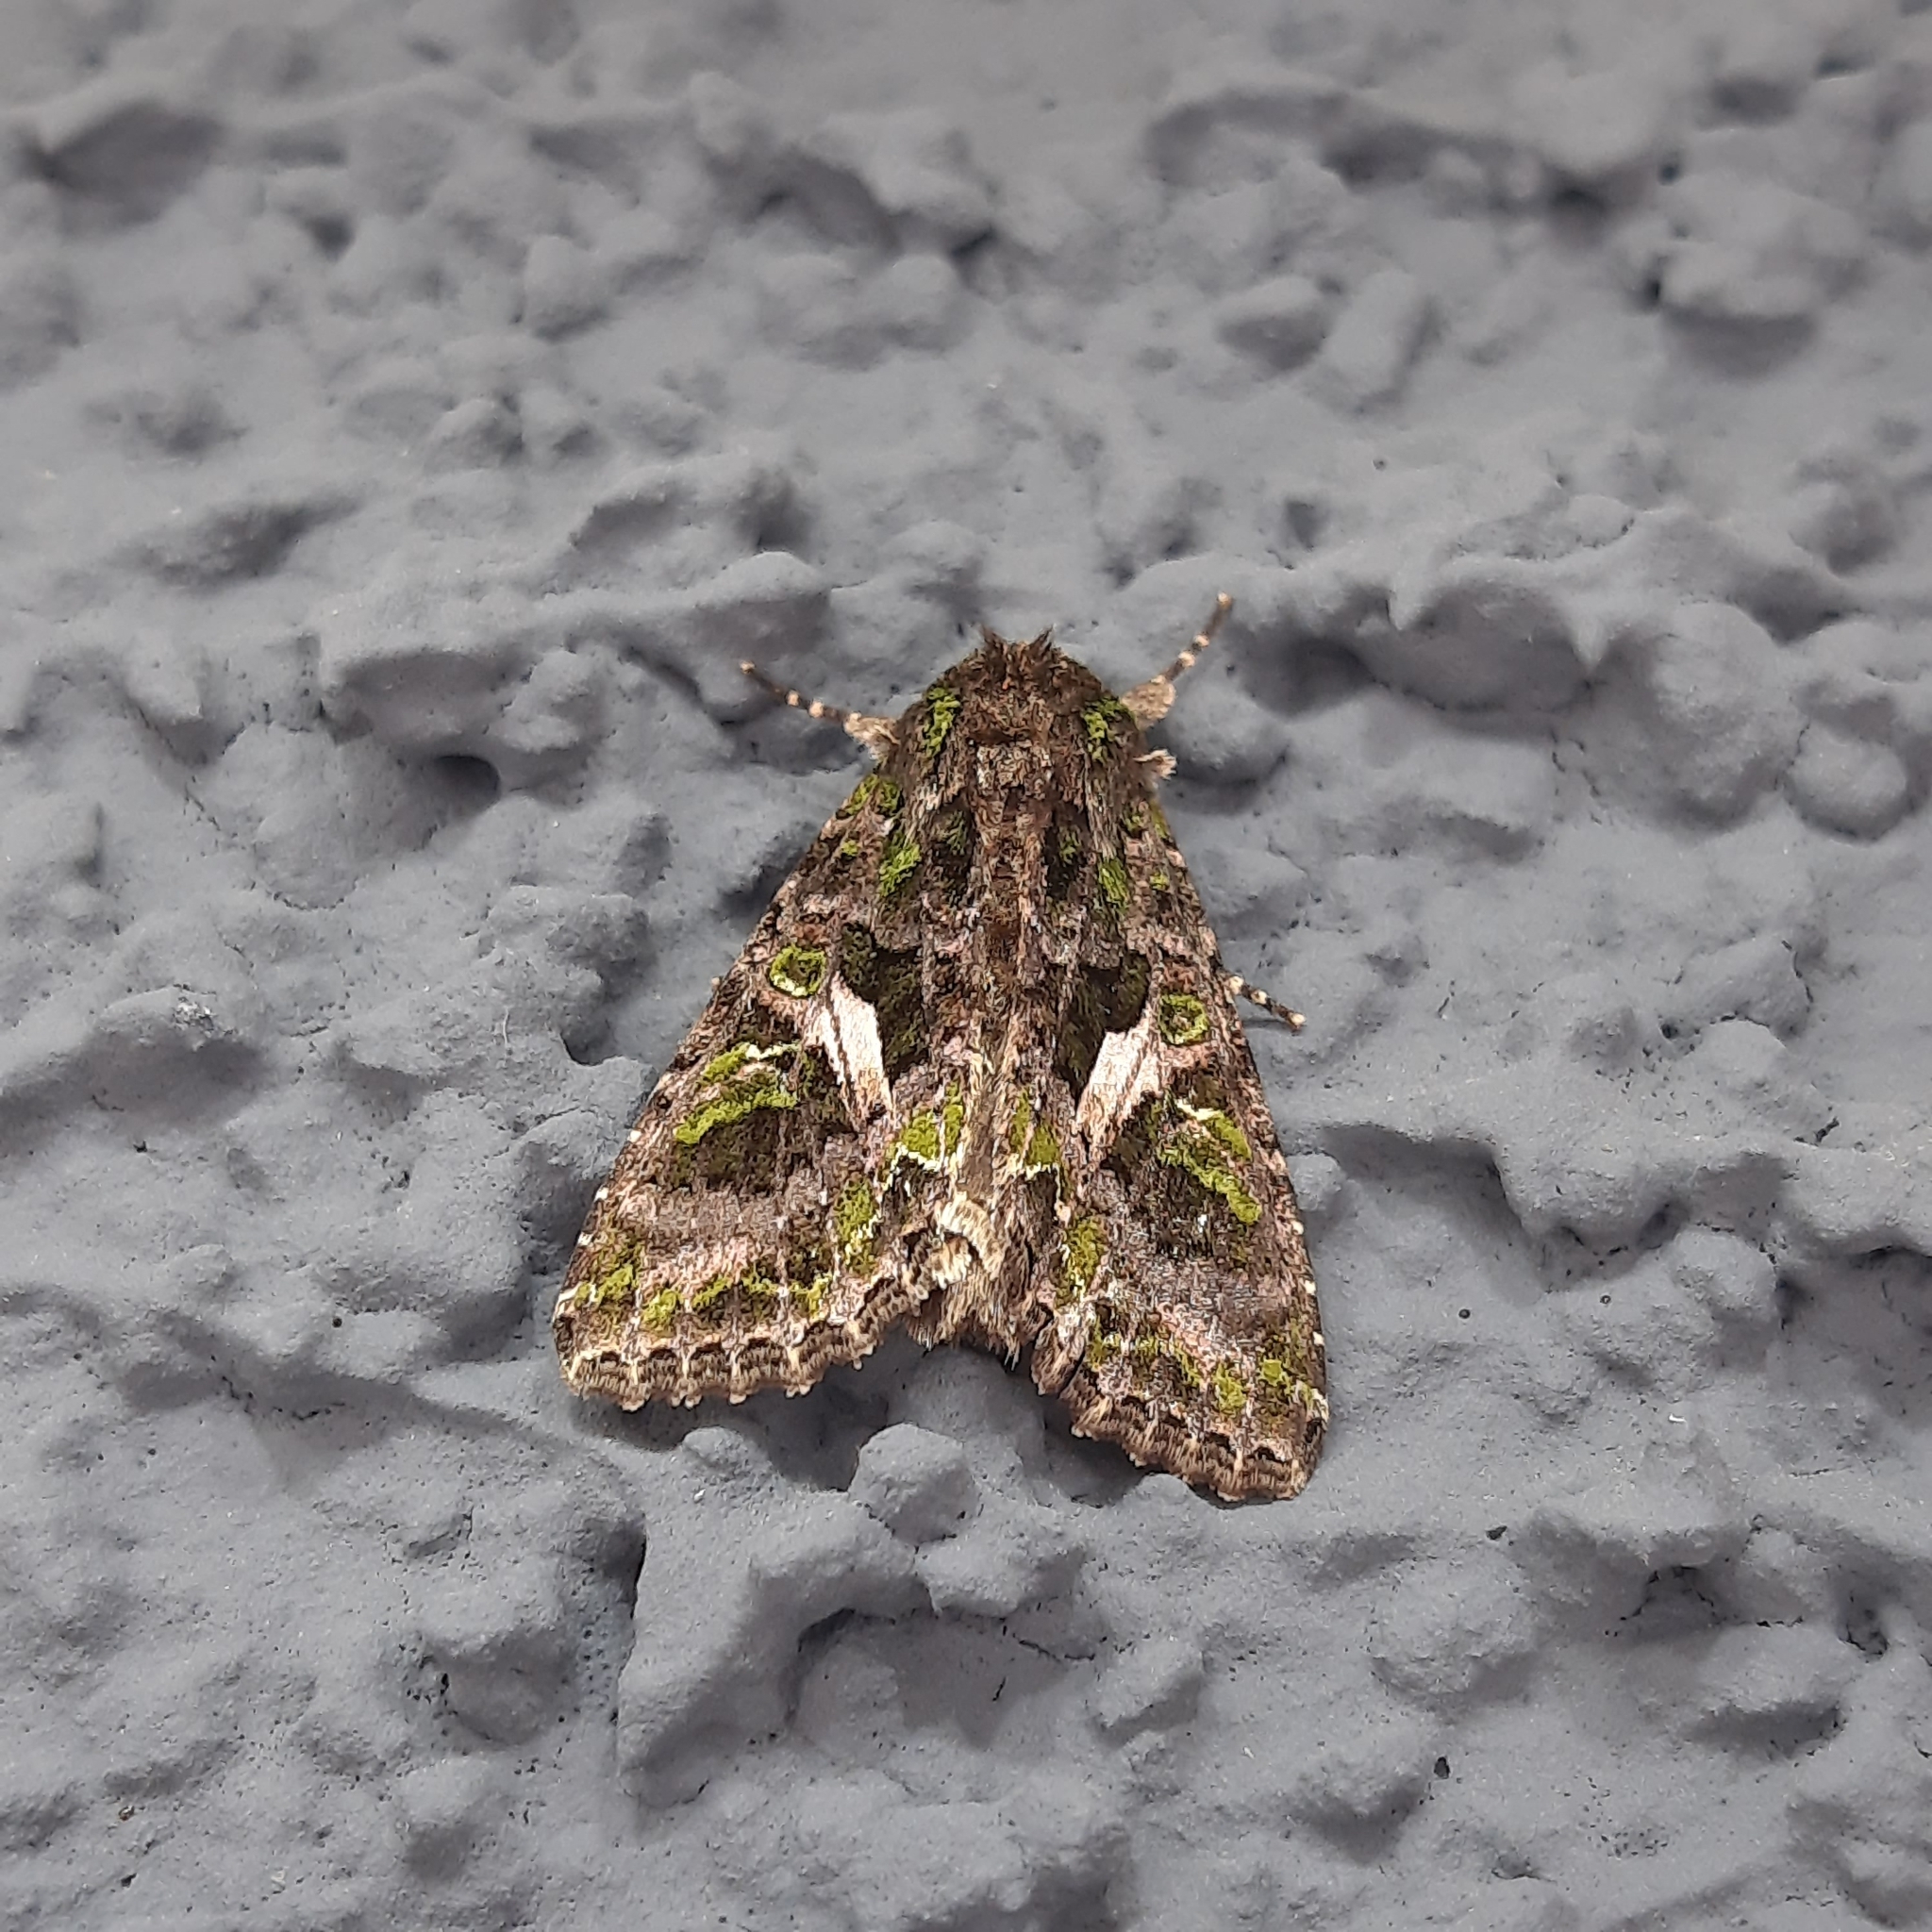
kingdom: Animalia
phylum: Arthropoda
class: Insecta
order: Lepidoptera
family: Noctuidae
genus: Trachea
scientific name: Trachea atriplicis
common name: Orache moth
